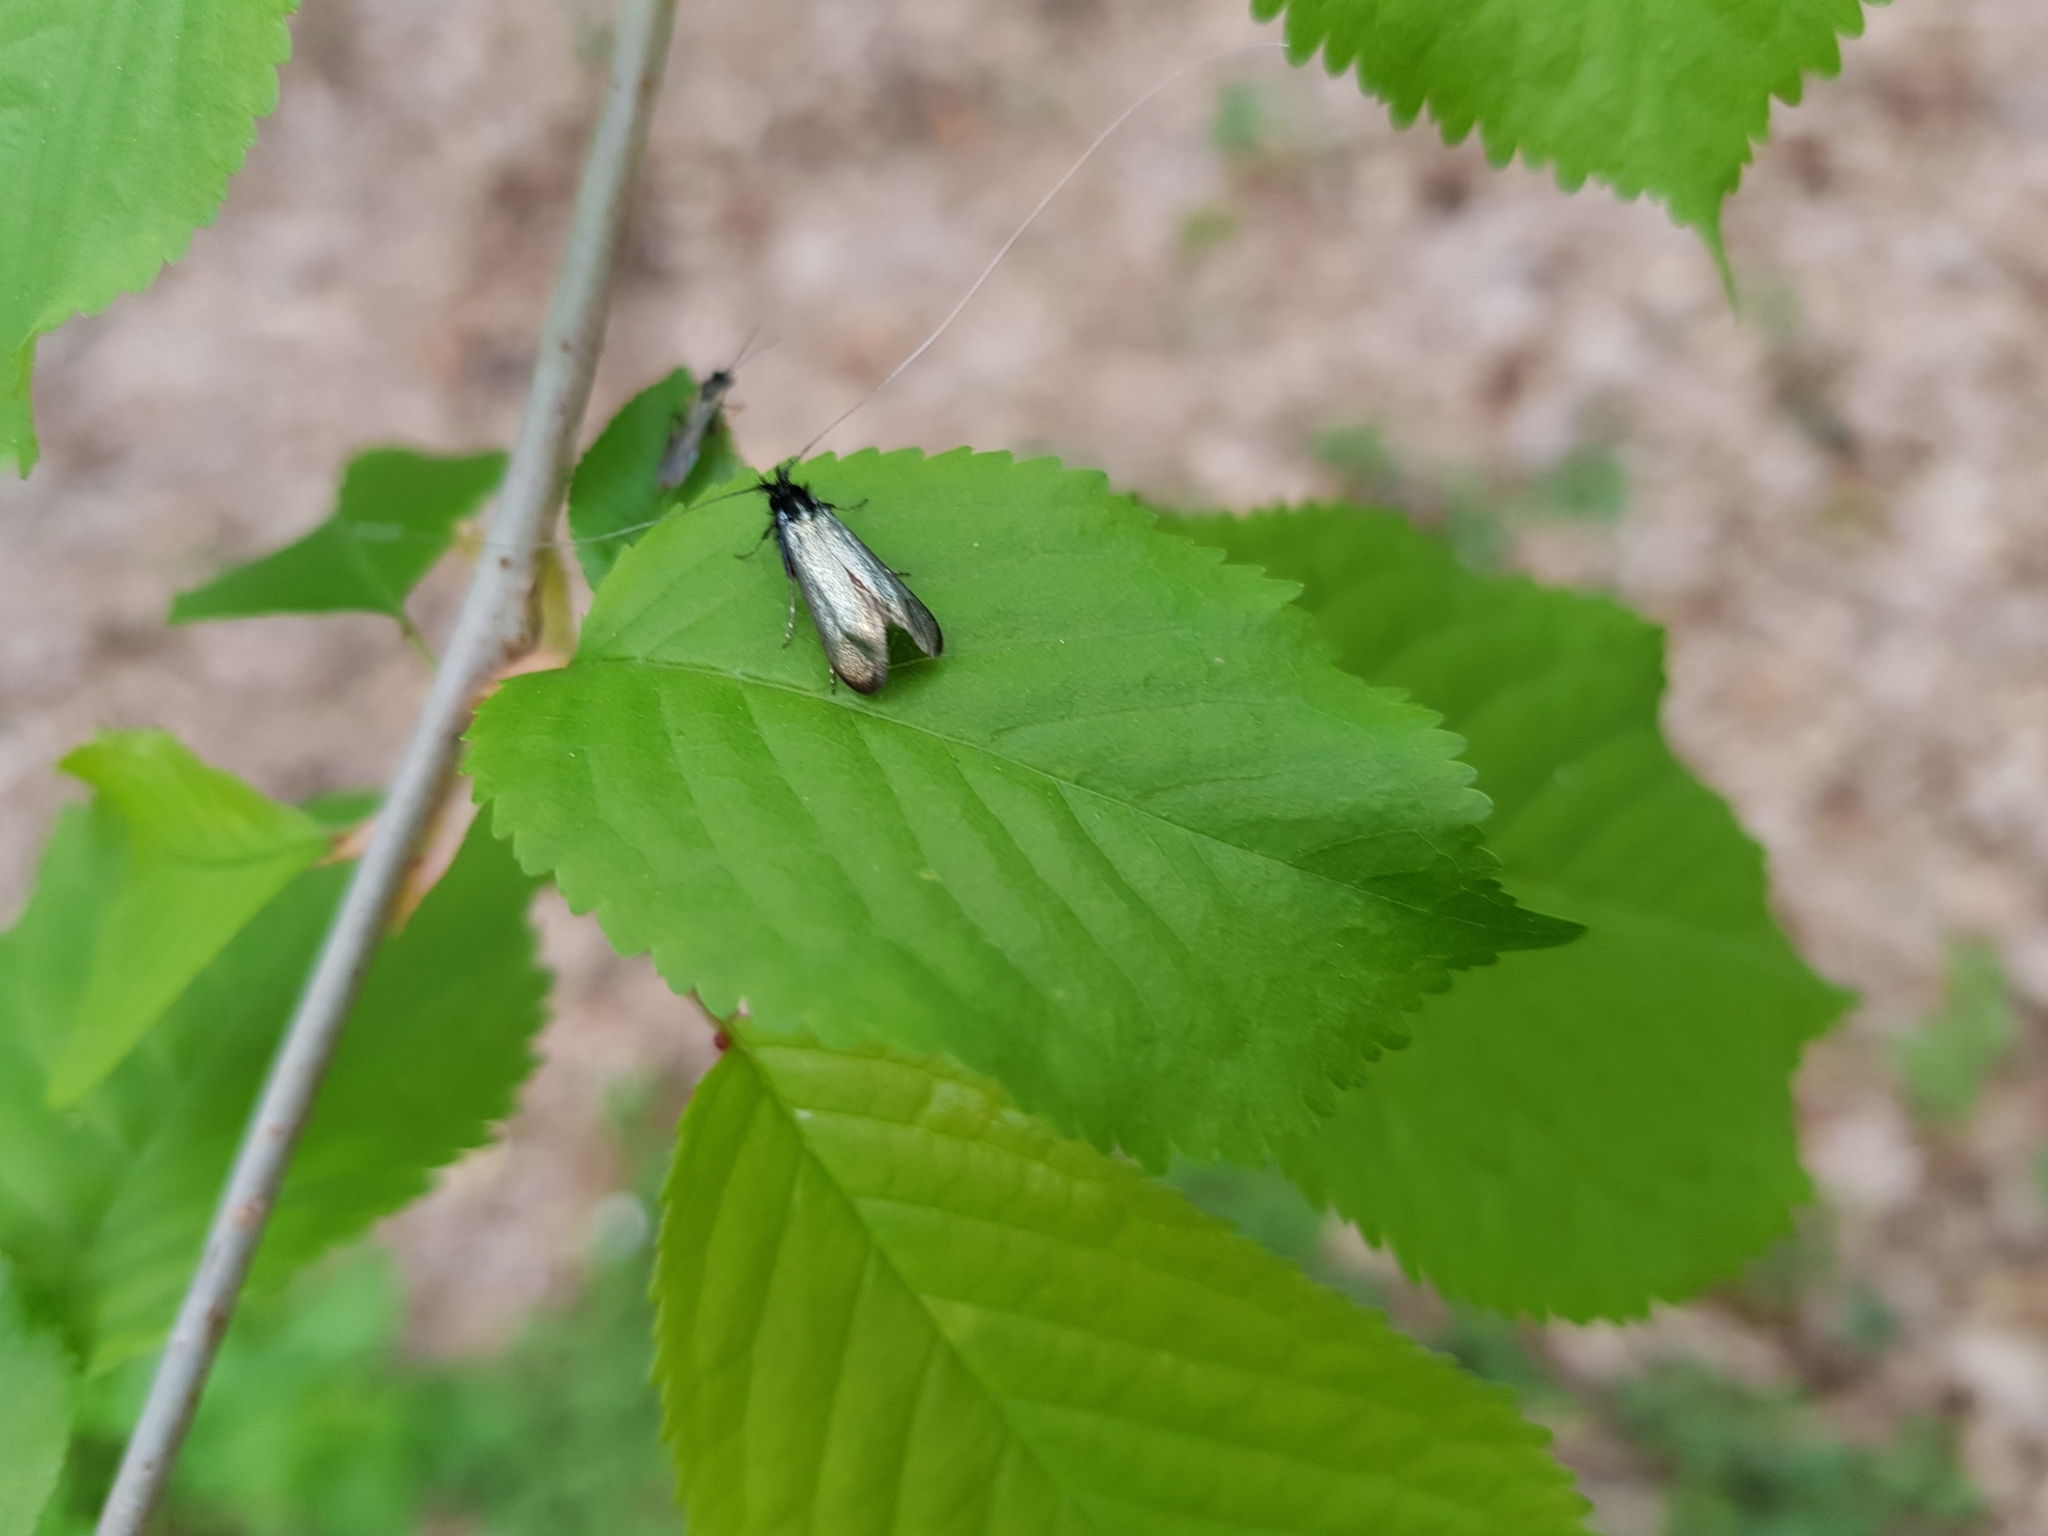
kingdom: Animalia
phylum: Arthropoda
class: Insecta
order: Lepidoptera
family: Adelidae
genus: Adela
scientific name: Adela viridella
